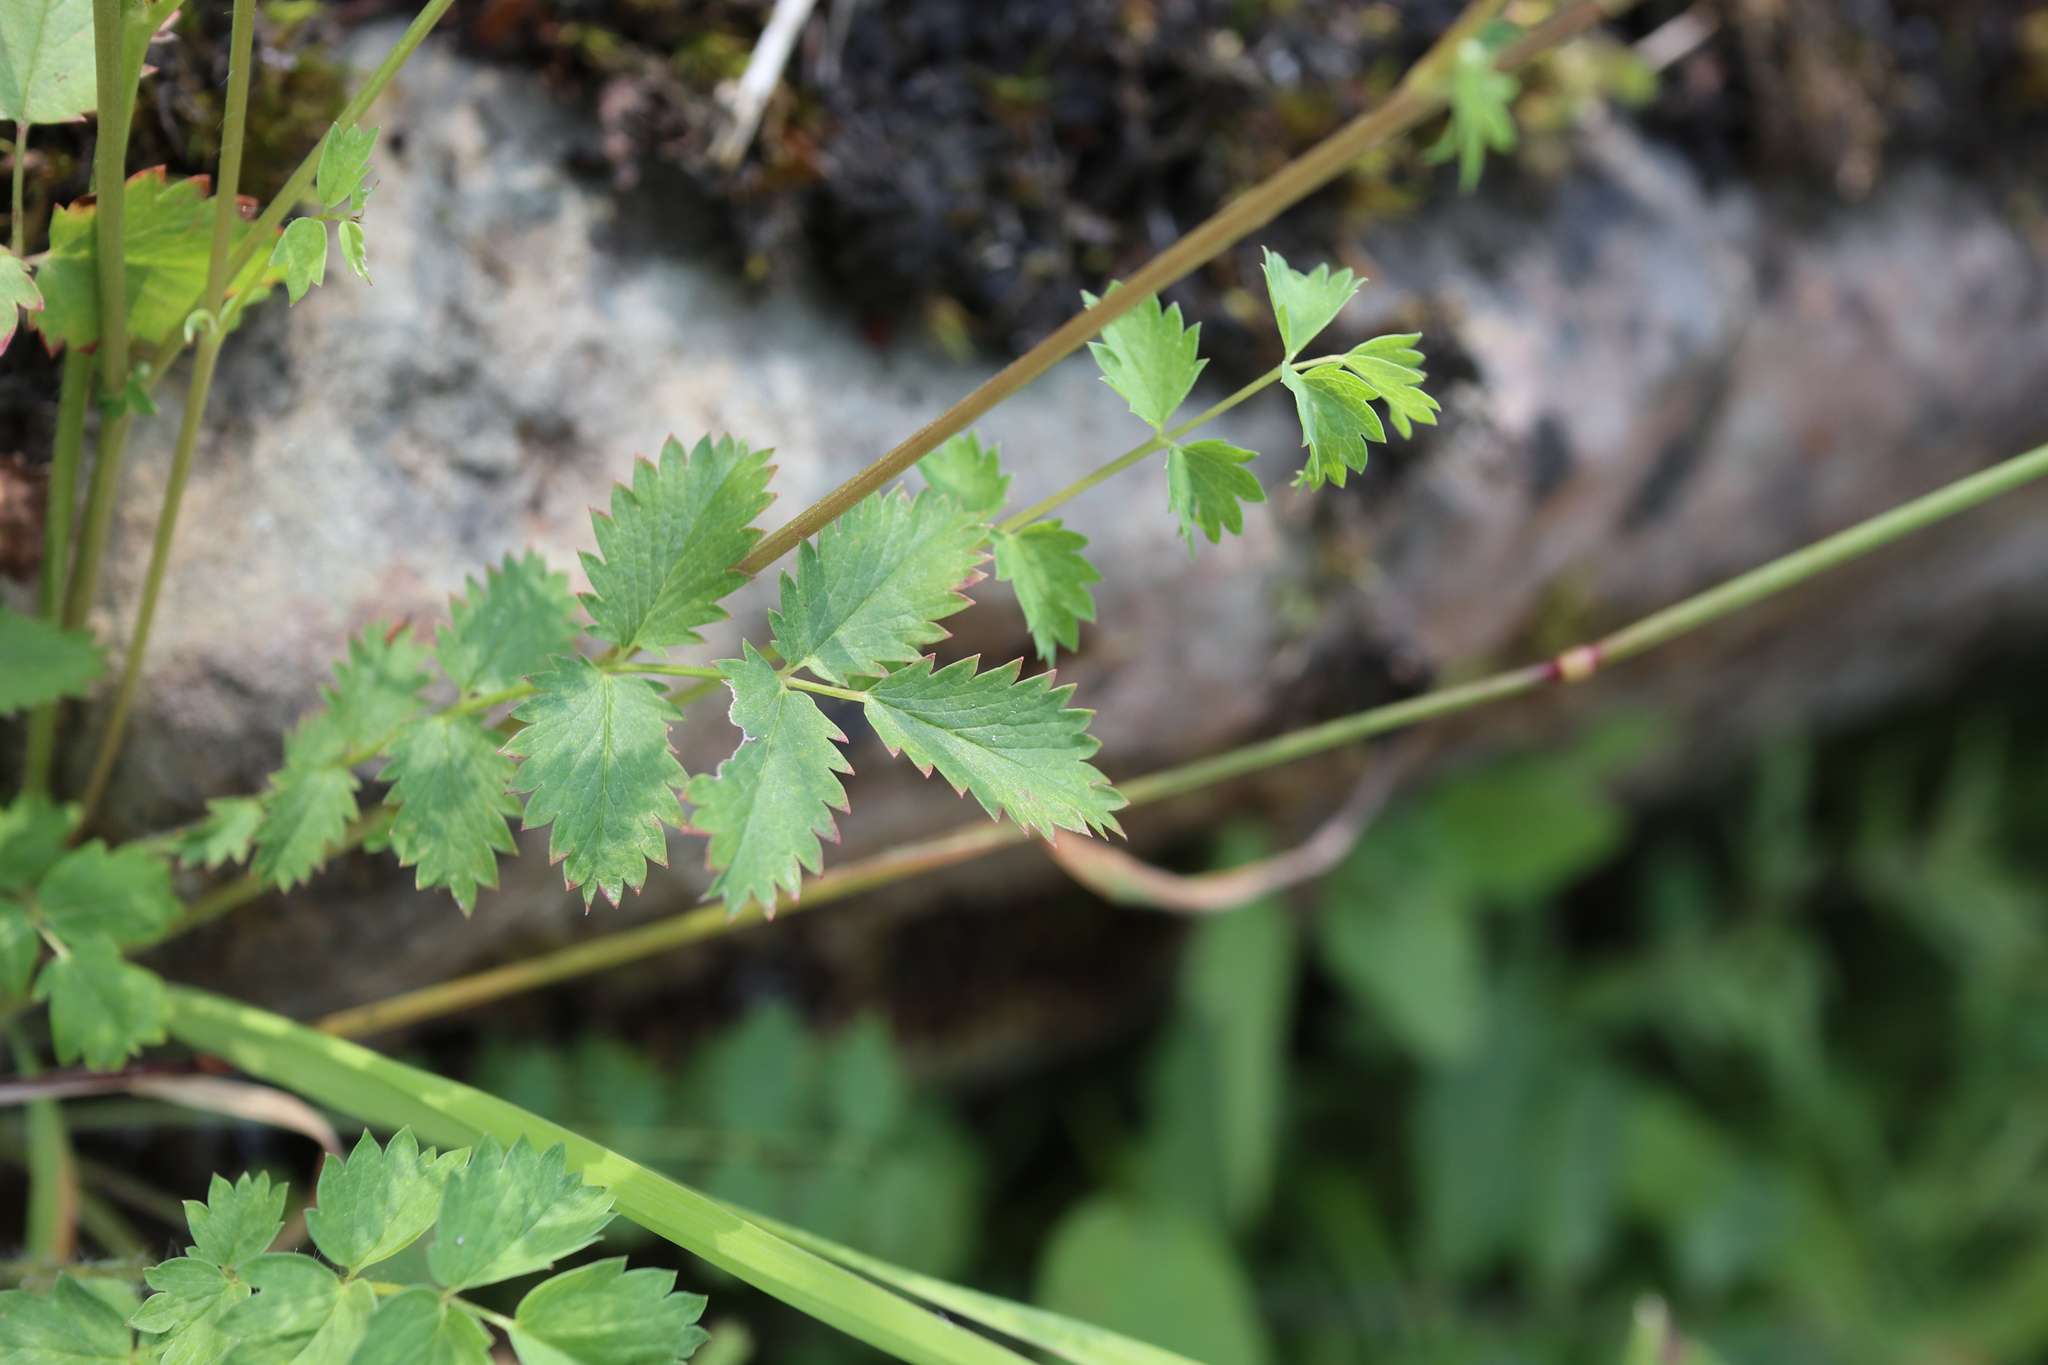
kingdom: Plantae
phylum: Tracheophyta
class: Magnoliopsida
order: Rosales
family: Rosaceae
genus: Poterium
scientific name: Poterium sanguisorba
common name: Salad burnet
